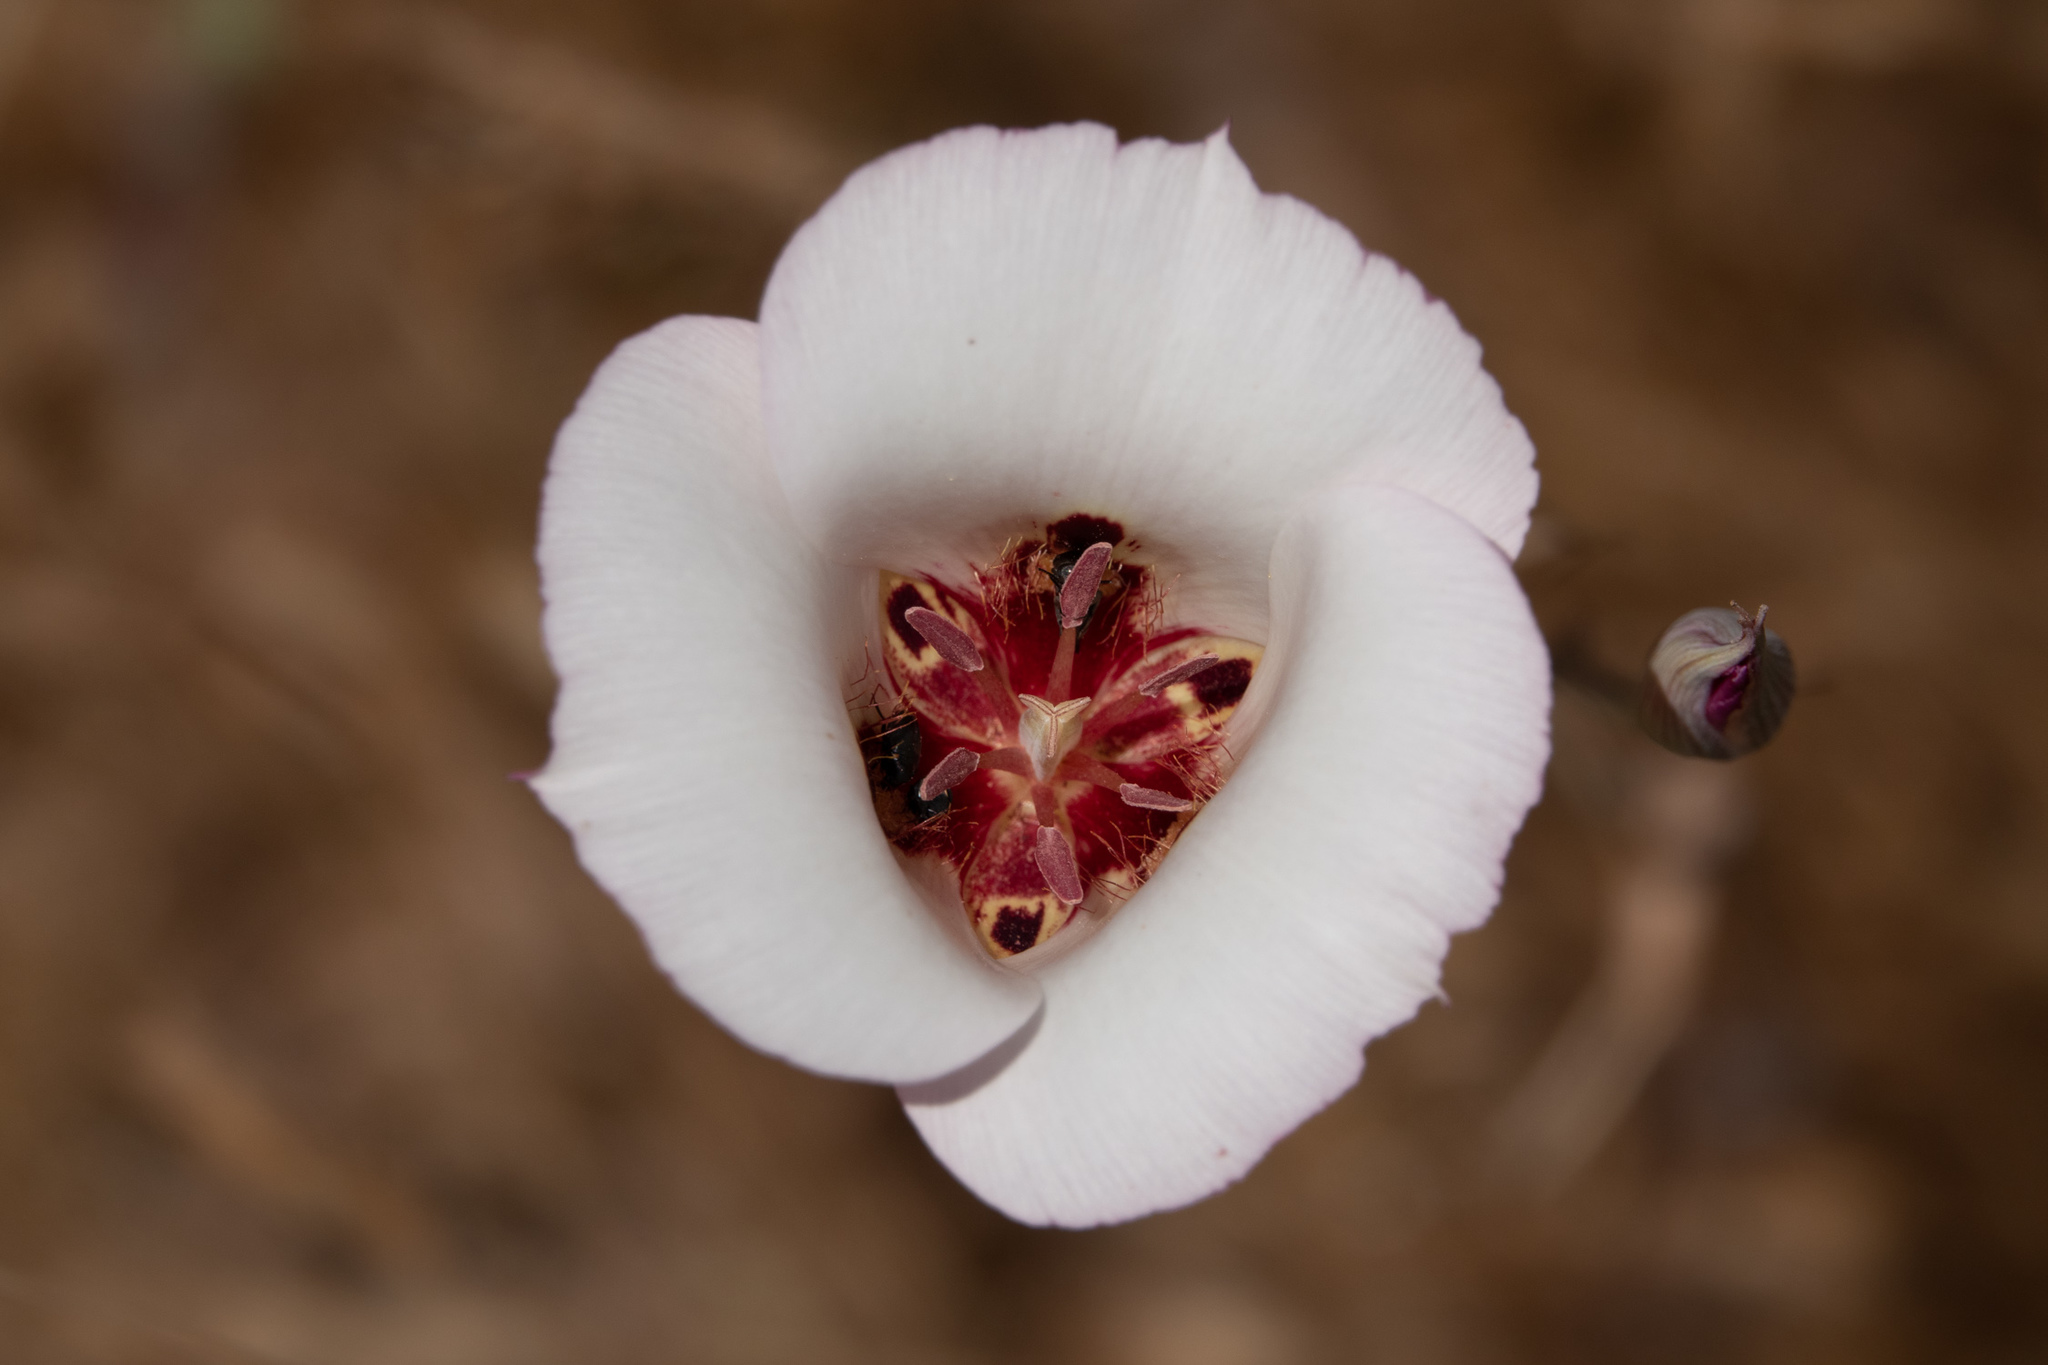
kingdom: Plantae
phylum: Tracheophyta
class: Liliopsida
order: Liliales
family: Liliaceae
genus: Calochortus
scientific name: Calochortus simulans
